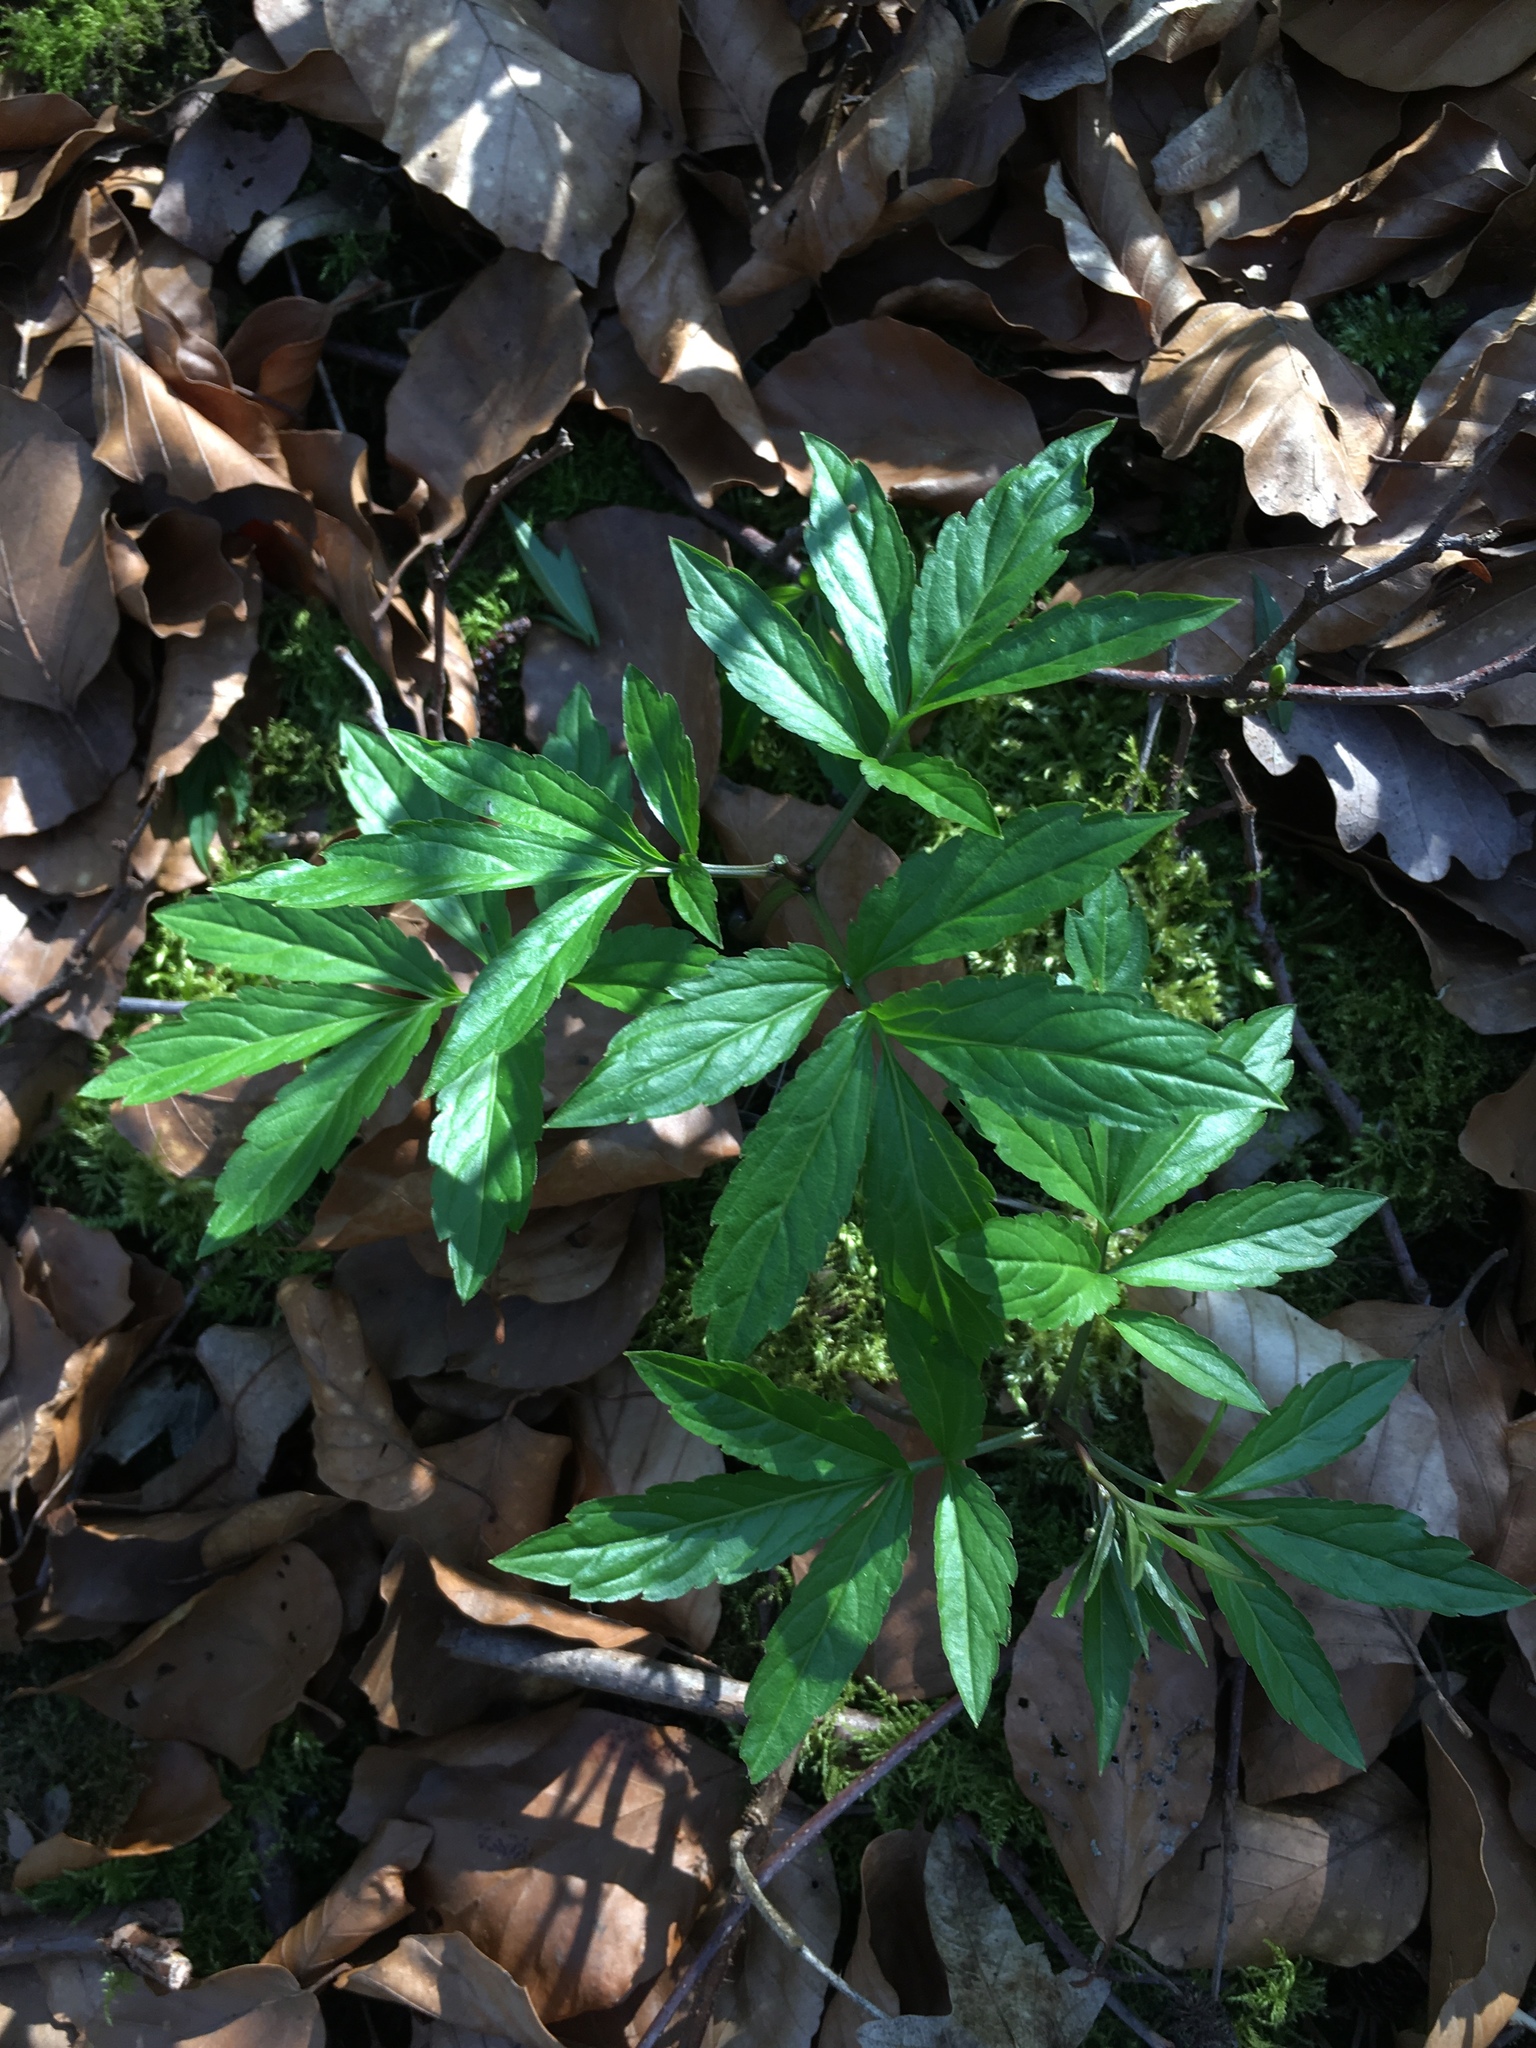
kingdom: Plantae
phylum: Tracheophyta
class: Magnoliopsida
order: Brassicales
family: Brassicaceae
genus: Cardamine
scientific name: Cardamine bulbifera
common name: Coralroot bittercress
